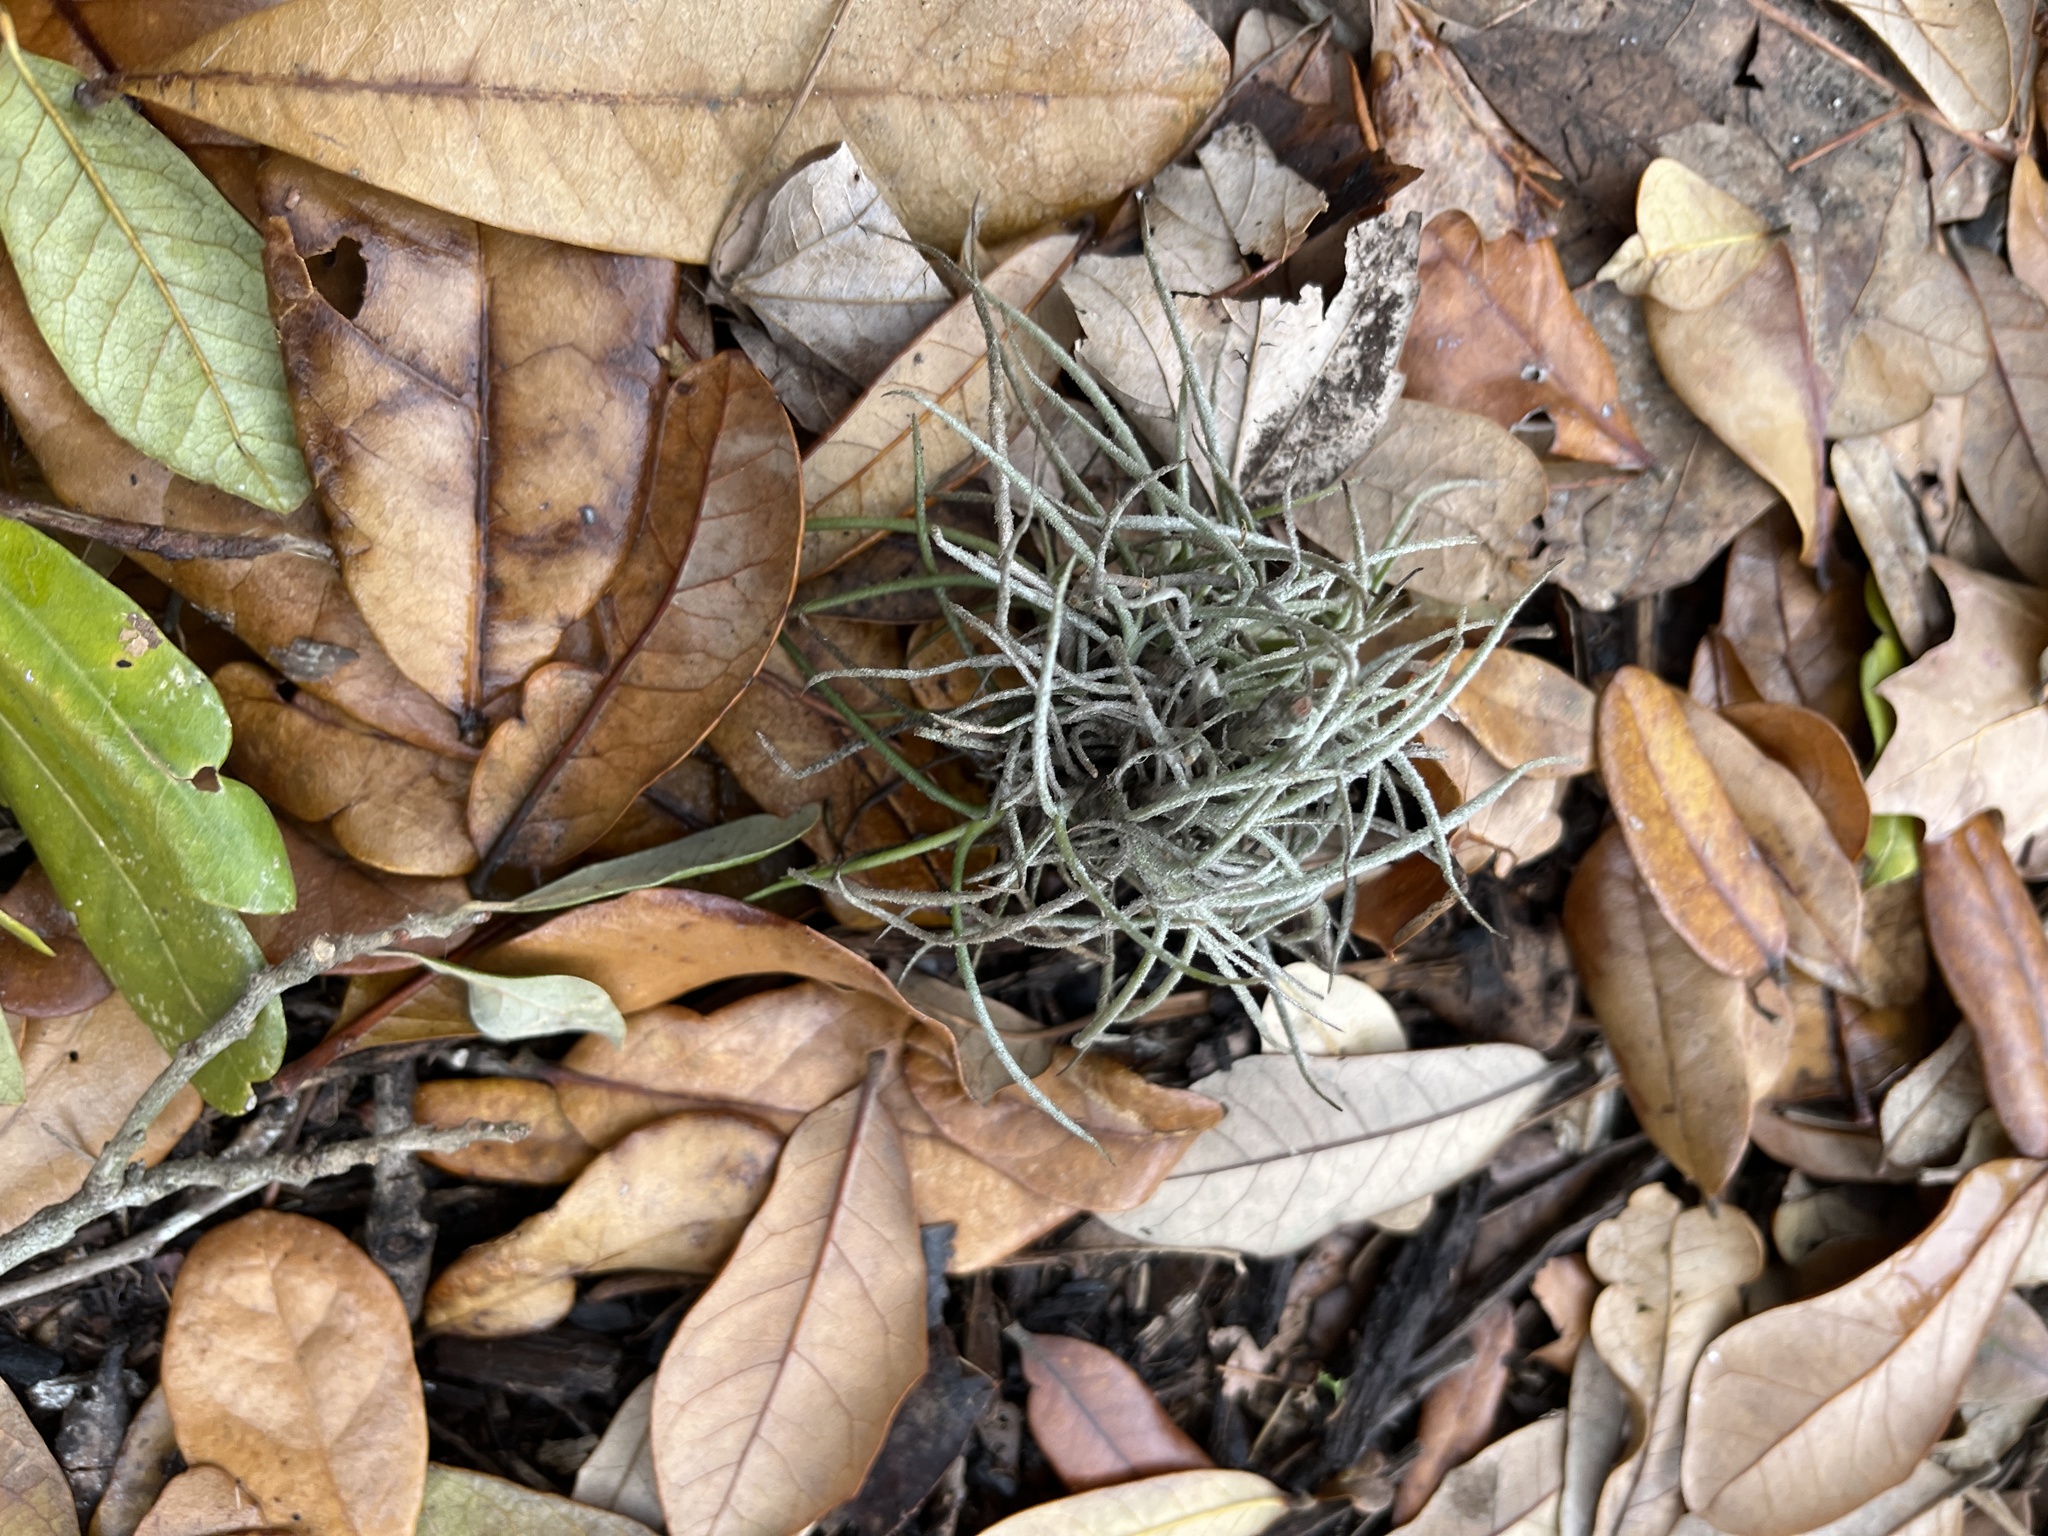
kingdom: Plantae
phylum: Tracheophyta
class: Liliopsida
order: Poales
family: Bromeliaceae
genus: Tillandsia
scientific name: Tillandsia recurvata
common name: Small ballmoss
